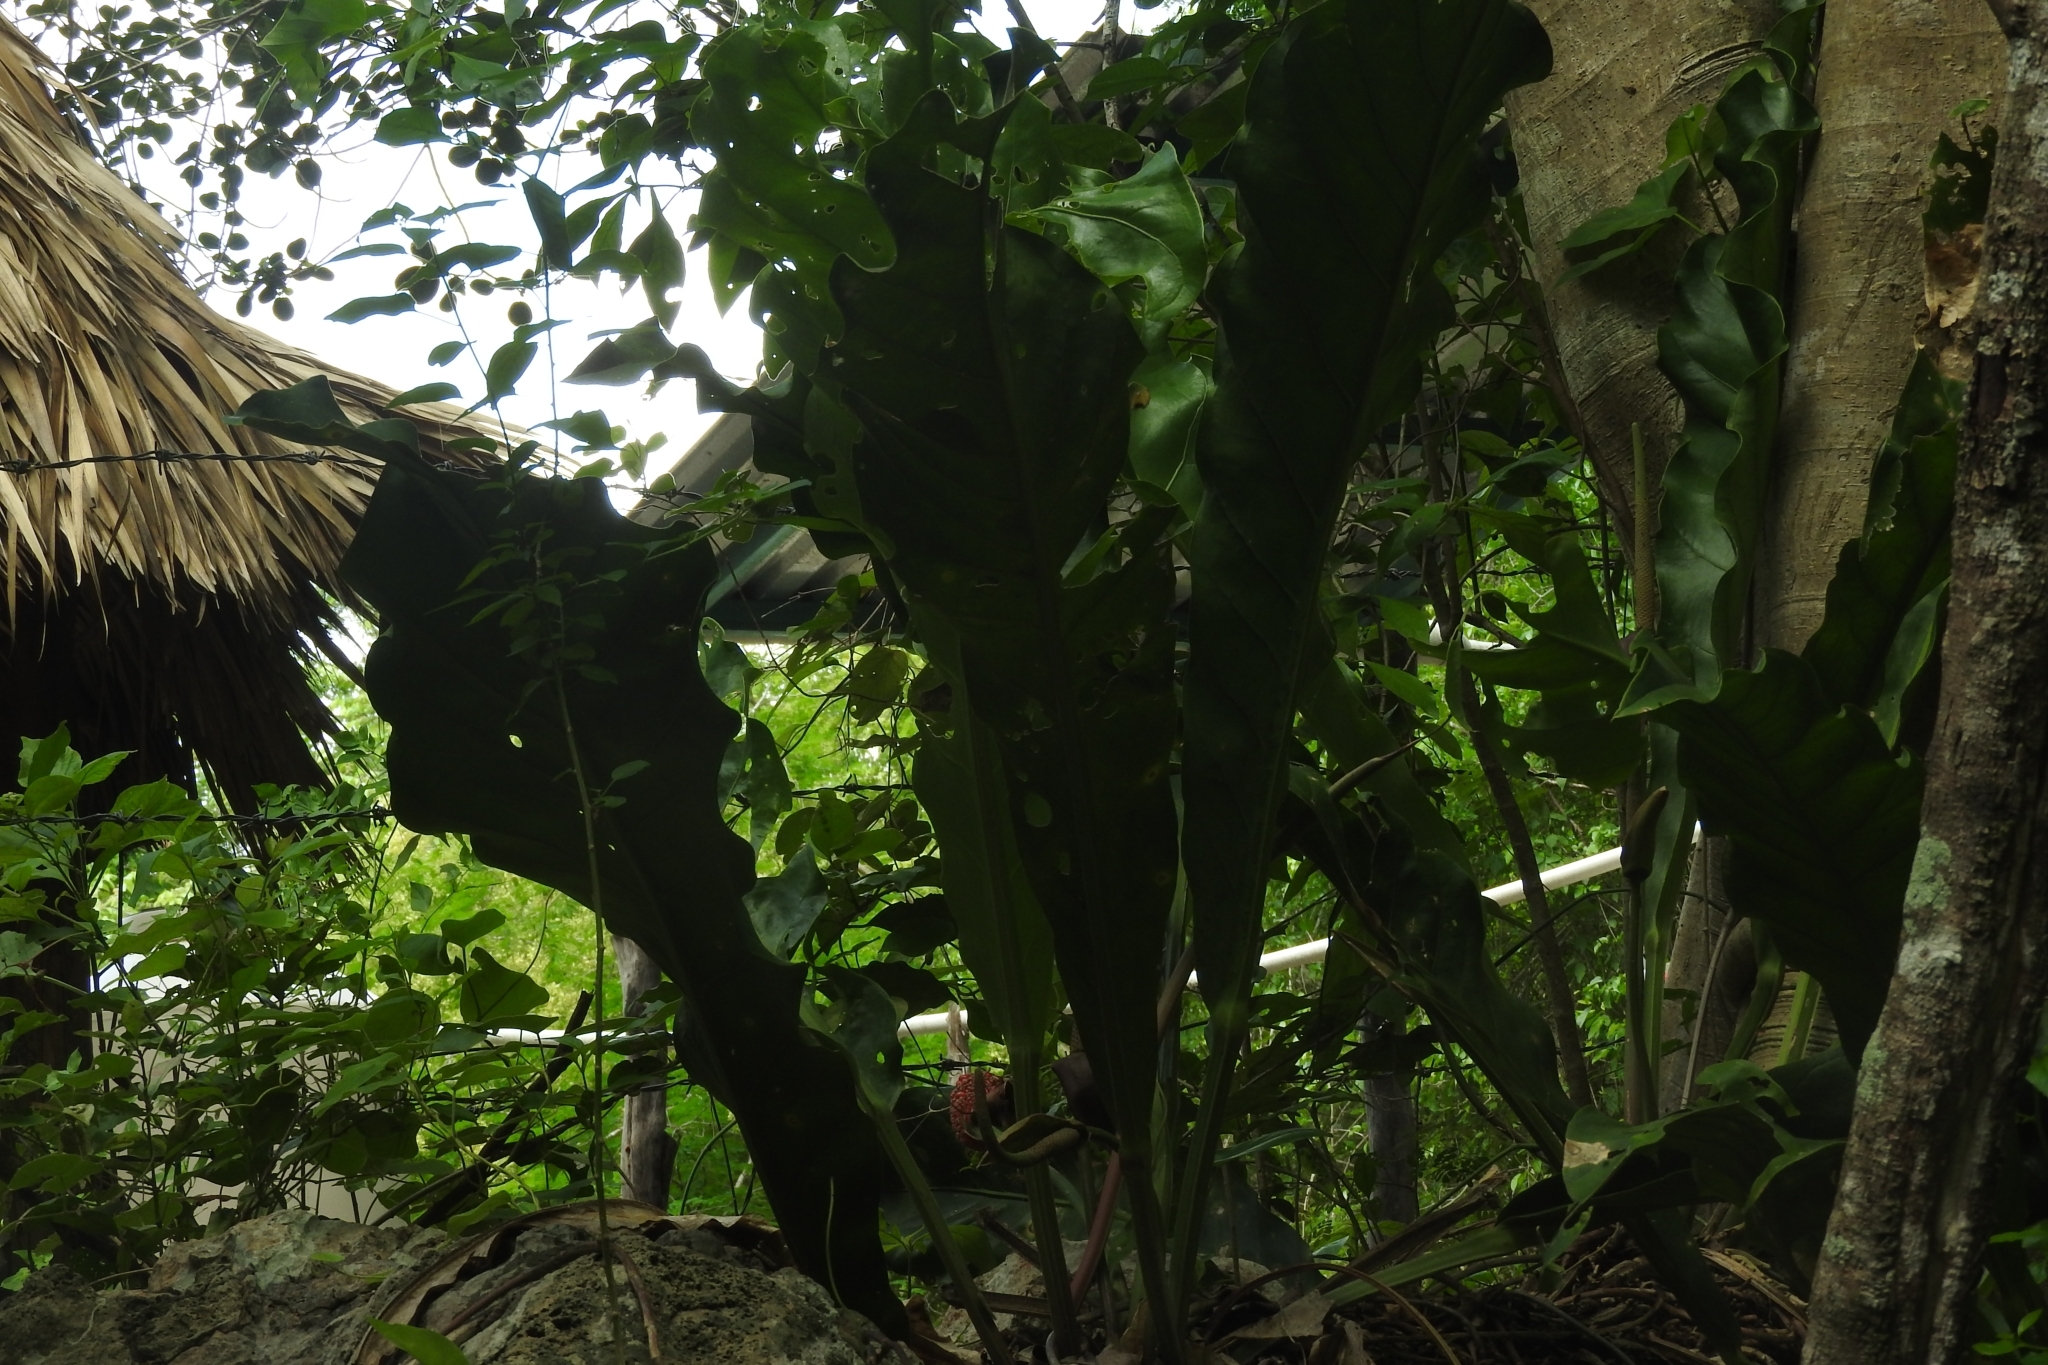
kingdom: Plantae
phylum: Tracheophyta
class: Liliopsida
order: Alismatales
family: Araceae
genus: Anthurium
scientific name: Anthurium schlechtendalii
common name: Laceleaf
